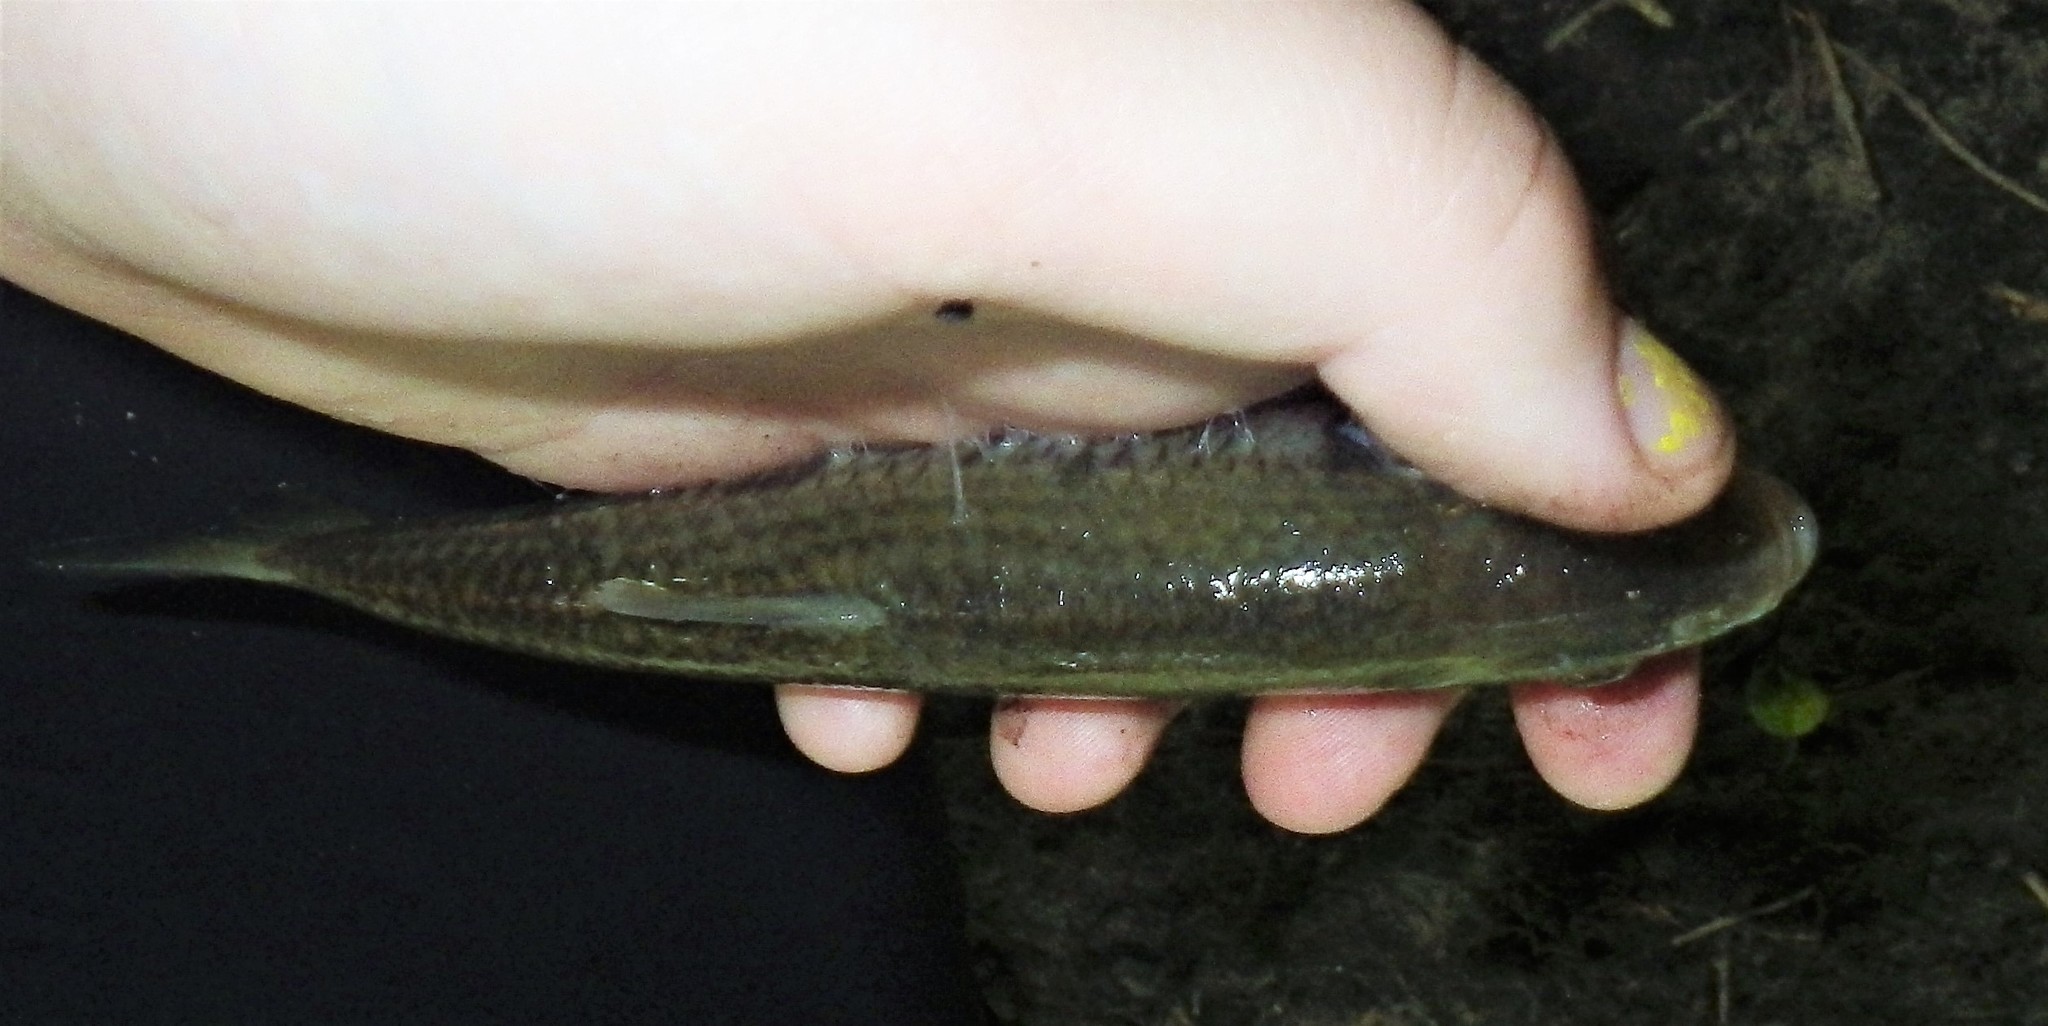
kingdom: Animalia
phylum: Chordata
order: Cypriniformes
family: Cyprinidae
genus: Luxilus
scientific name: Luxilus chrysocephalus
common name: Striped shiner
